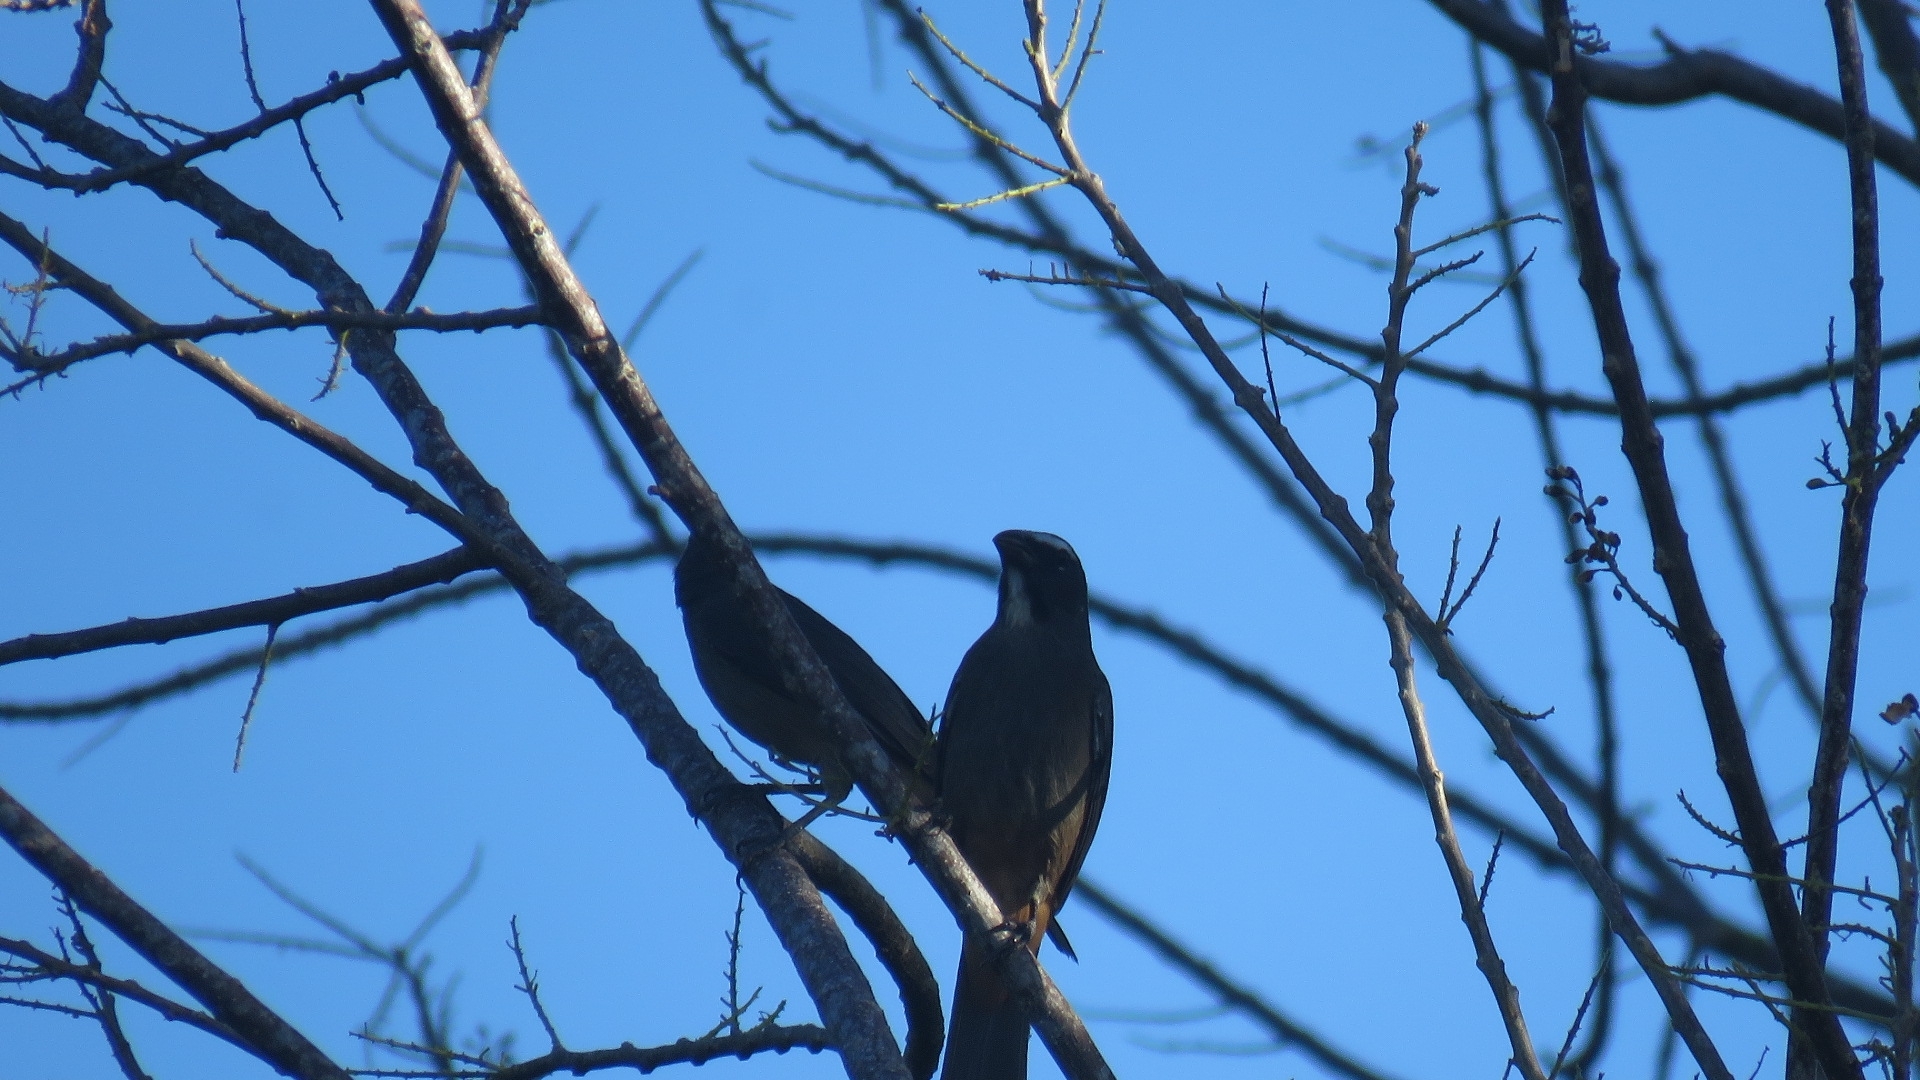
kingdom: Animalia
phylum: Chordata
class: Aves
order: Passeriformes
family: Thraupidae
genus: Saltator
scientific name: Saltator grandis
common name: Cinnamon-bellied saltator
